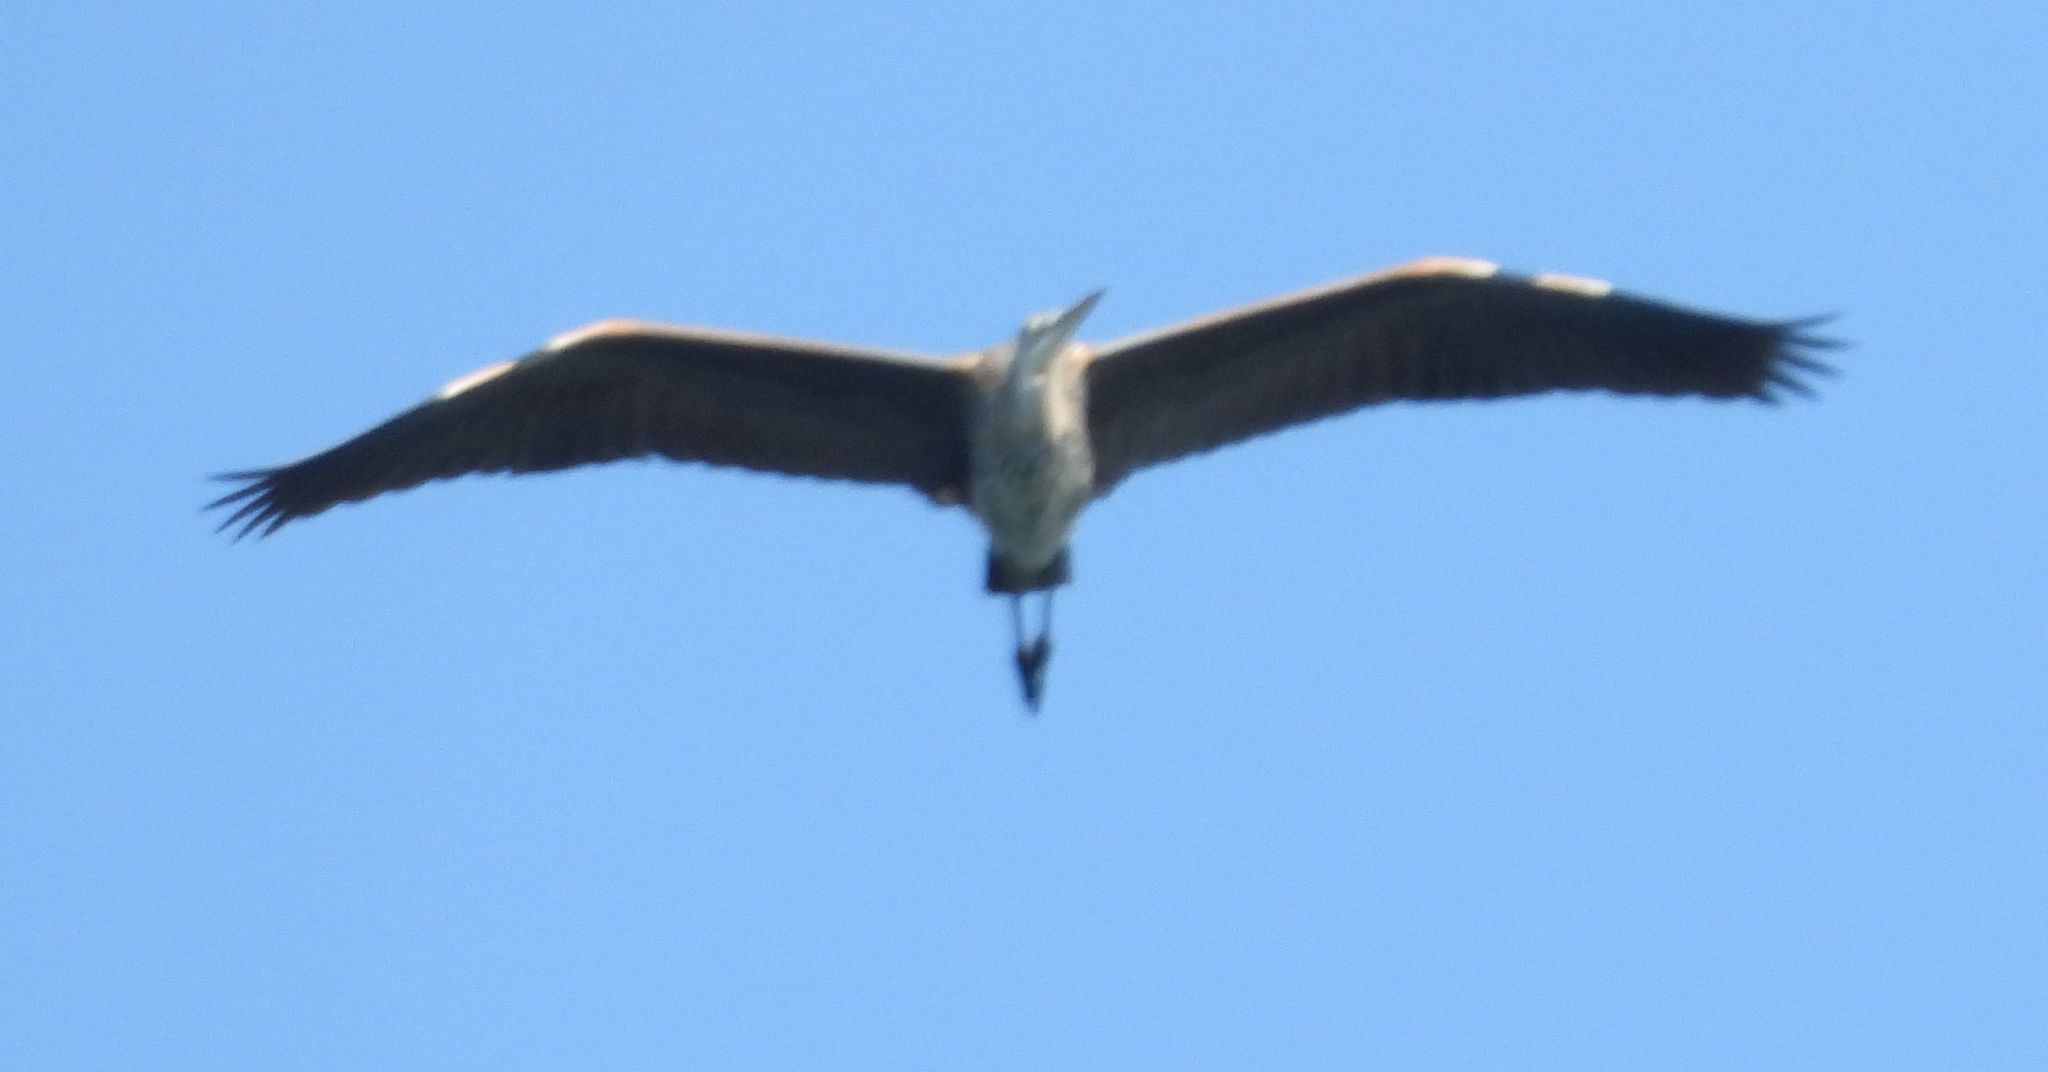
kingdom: Animalia
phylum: Chordata
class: Aves
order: Pelecaniformes
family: Ardeidae
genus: Ardea
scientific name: Ardea herodias
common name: Great blue heron
